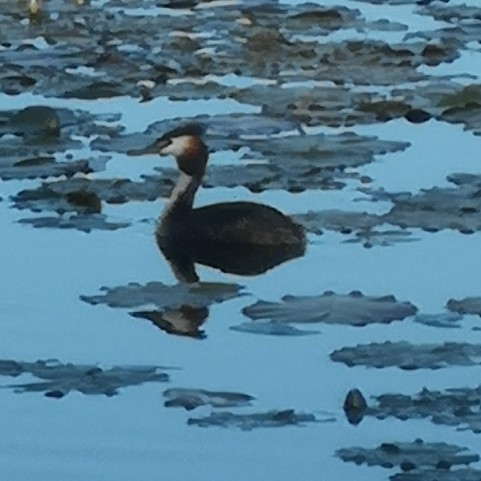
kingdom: Animalia
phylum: Chordata
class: Aves
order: Podicipediformes
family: Podicipedidae
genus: Podiceps
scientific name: Podiceps cristatus
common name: Great crested grebe
